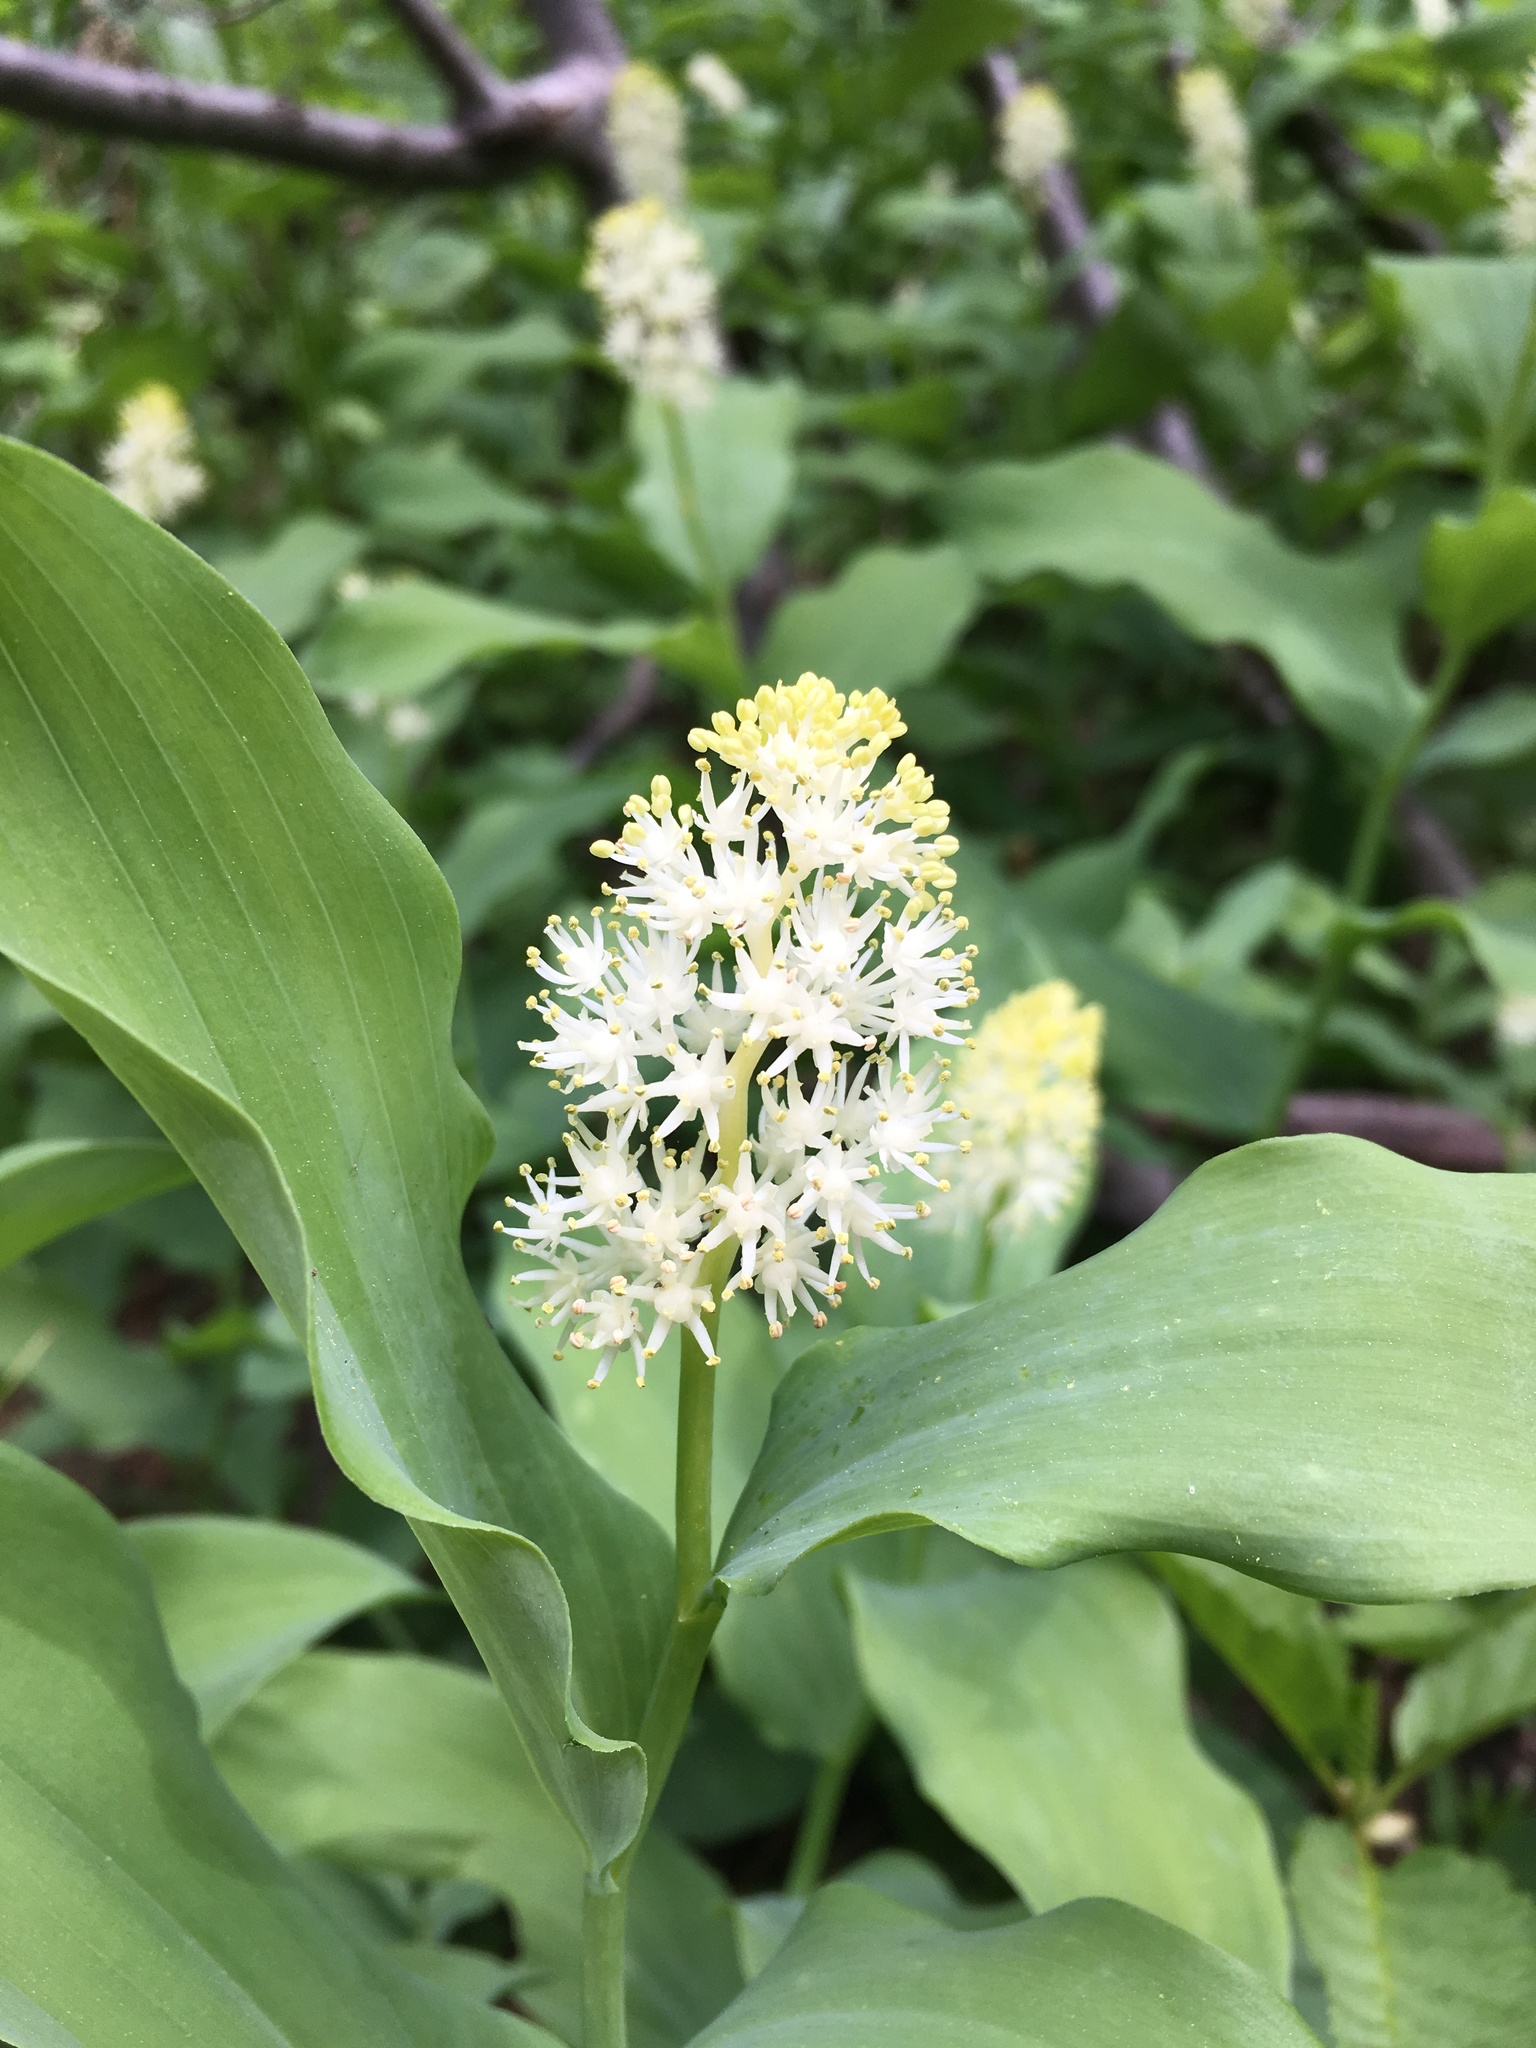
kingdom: Plantae
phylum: Tracheophyta
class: Liliopsida
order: Asparagales
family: Asparagaceae
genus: Maianthemum
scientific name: Maianthemum racemosum
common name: False spikenard
